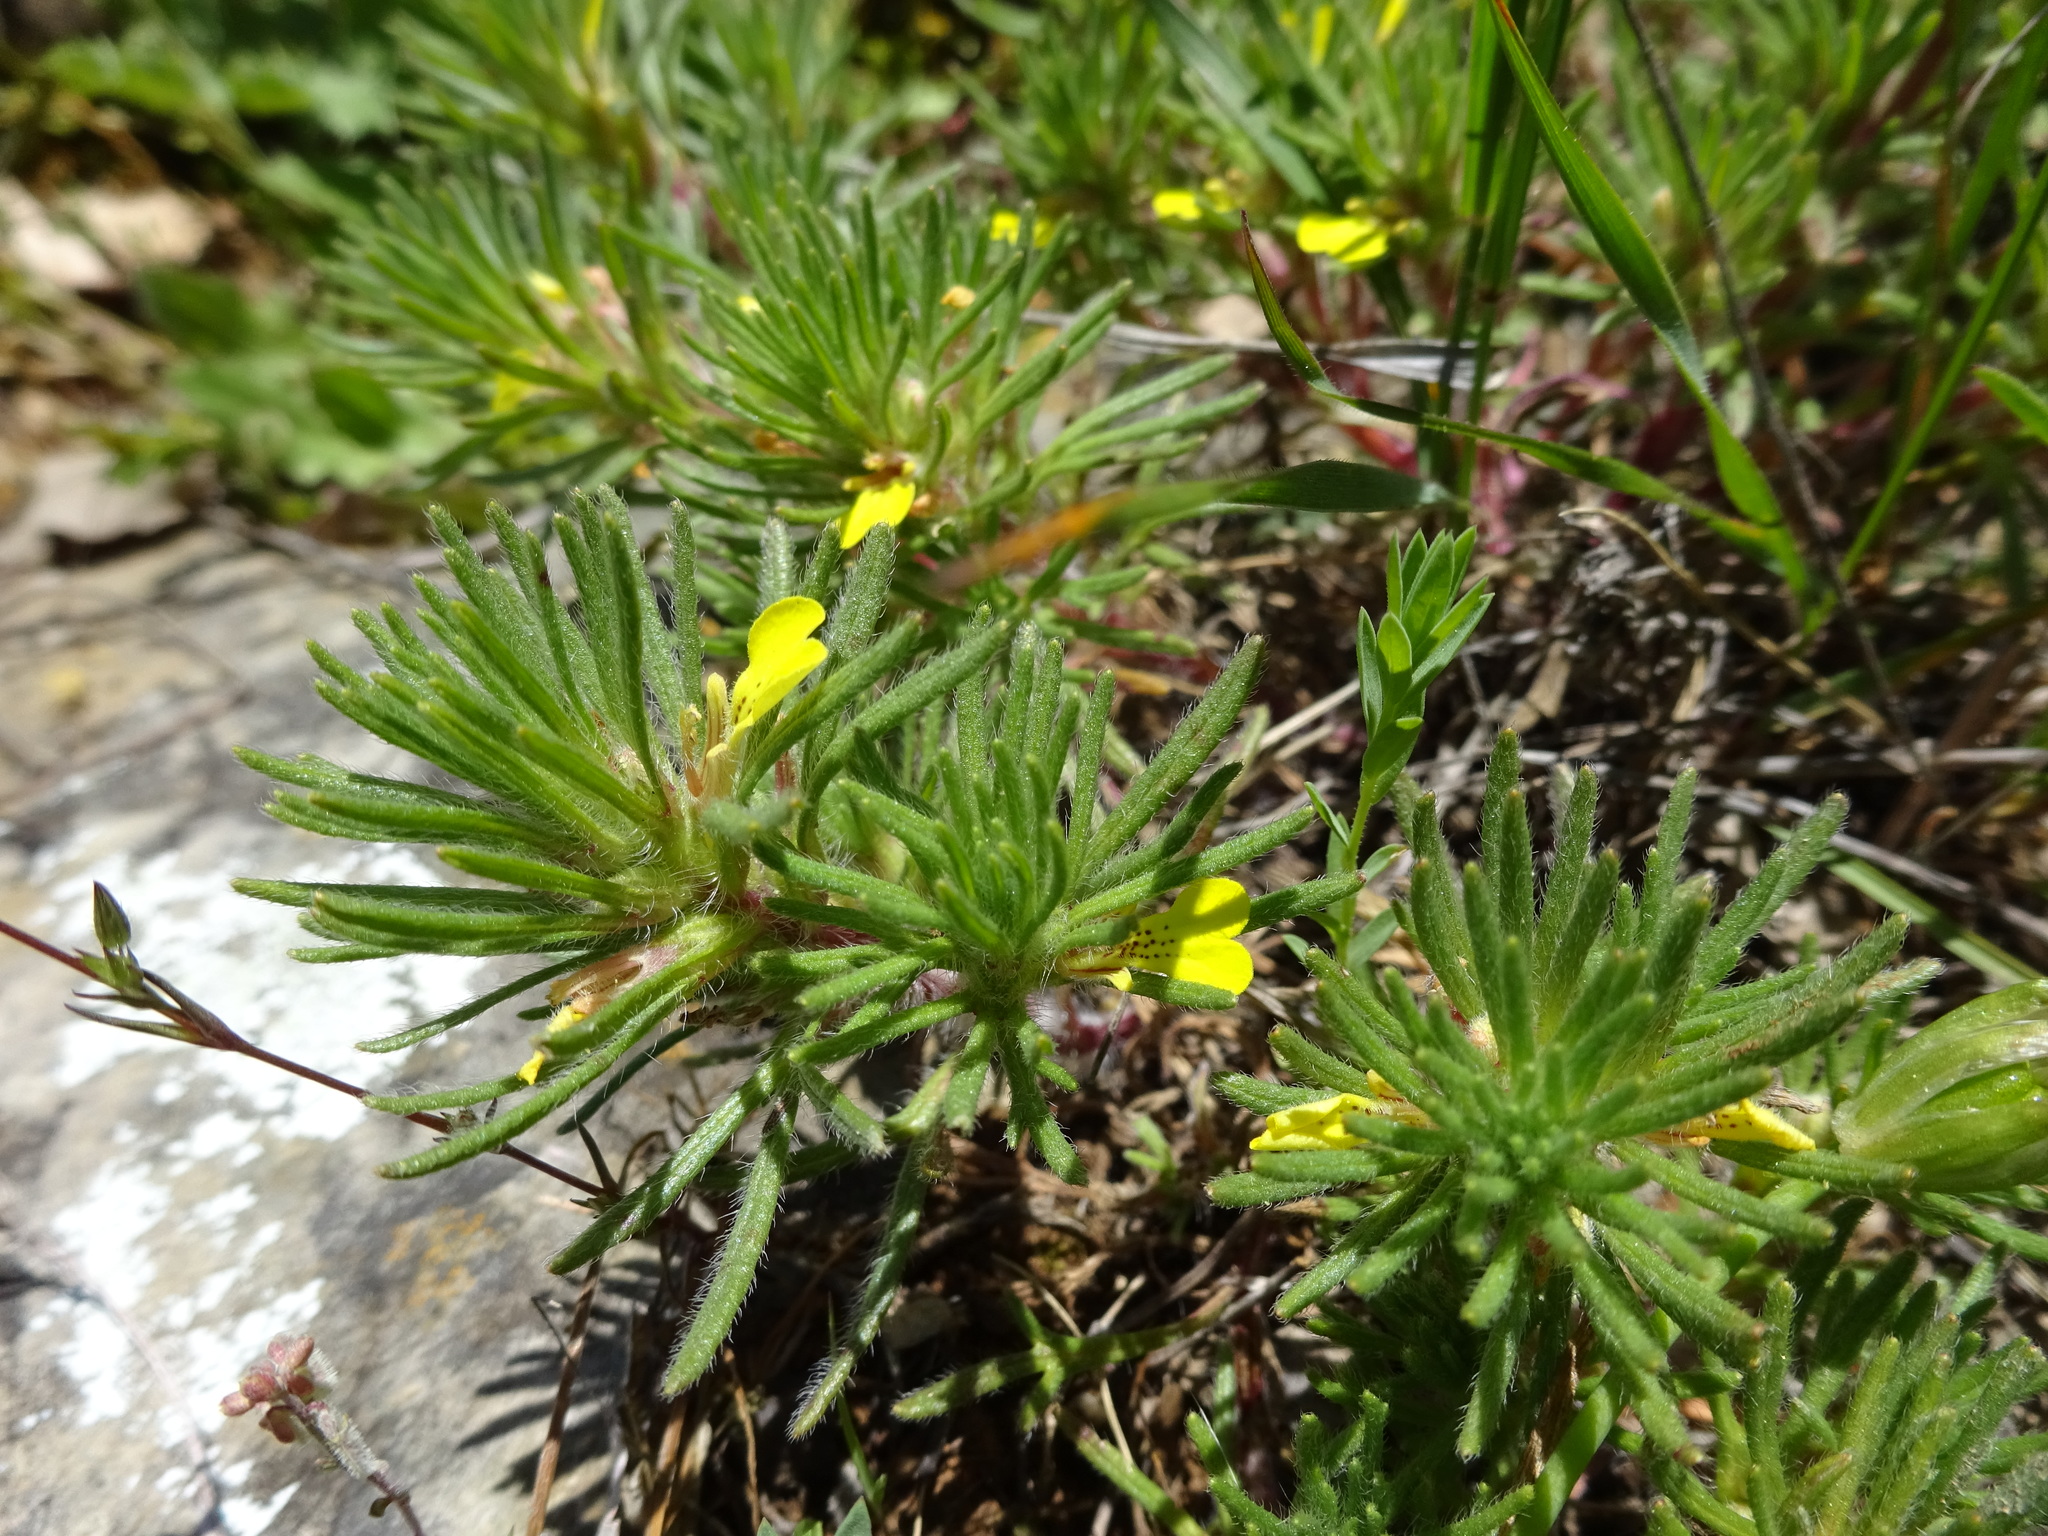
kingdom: Plantae
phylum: Tracheophyta
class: Magnoliopsida
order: Lamiales
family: Lamiaceae
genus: Ajuga
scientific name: Ajuga chamaepitys
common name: Ground-pine
